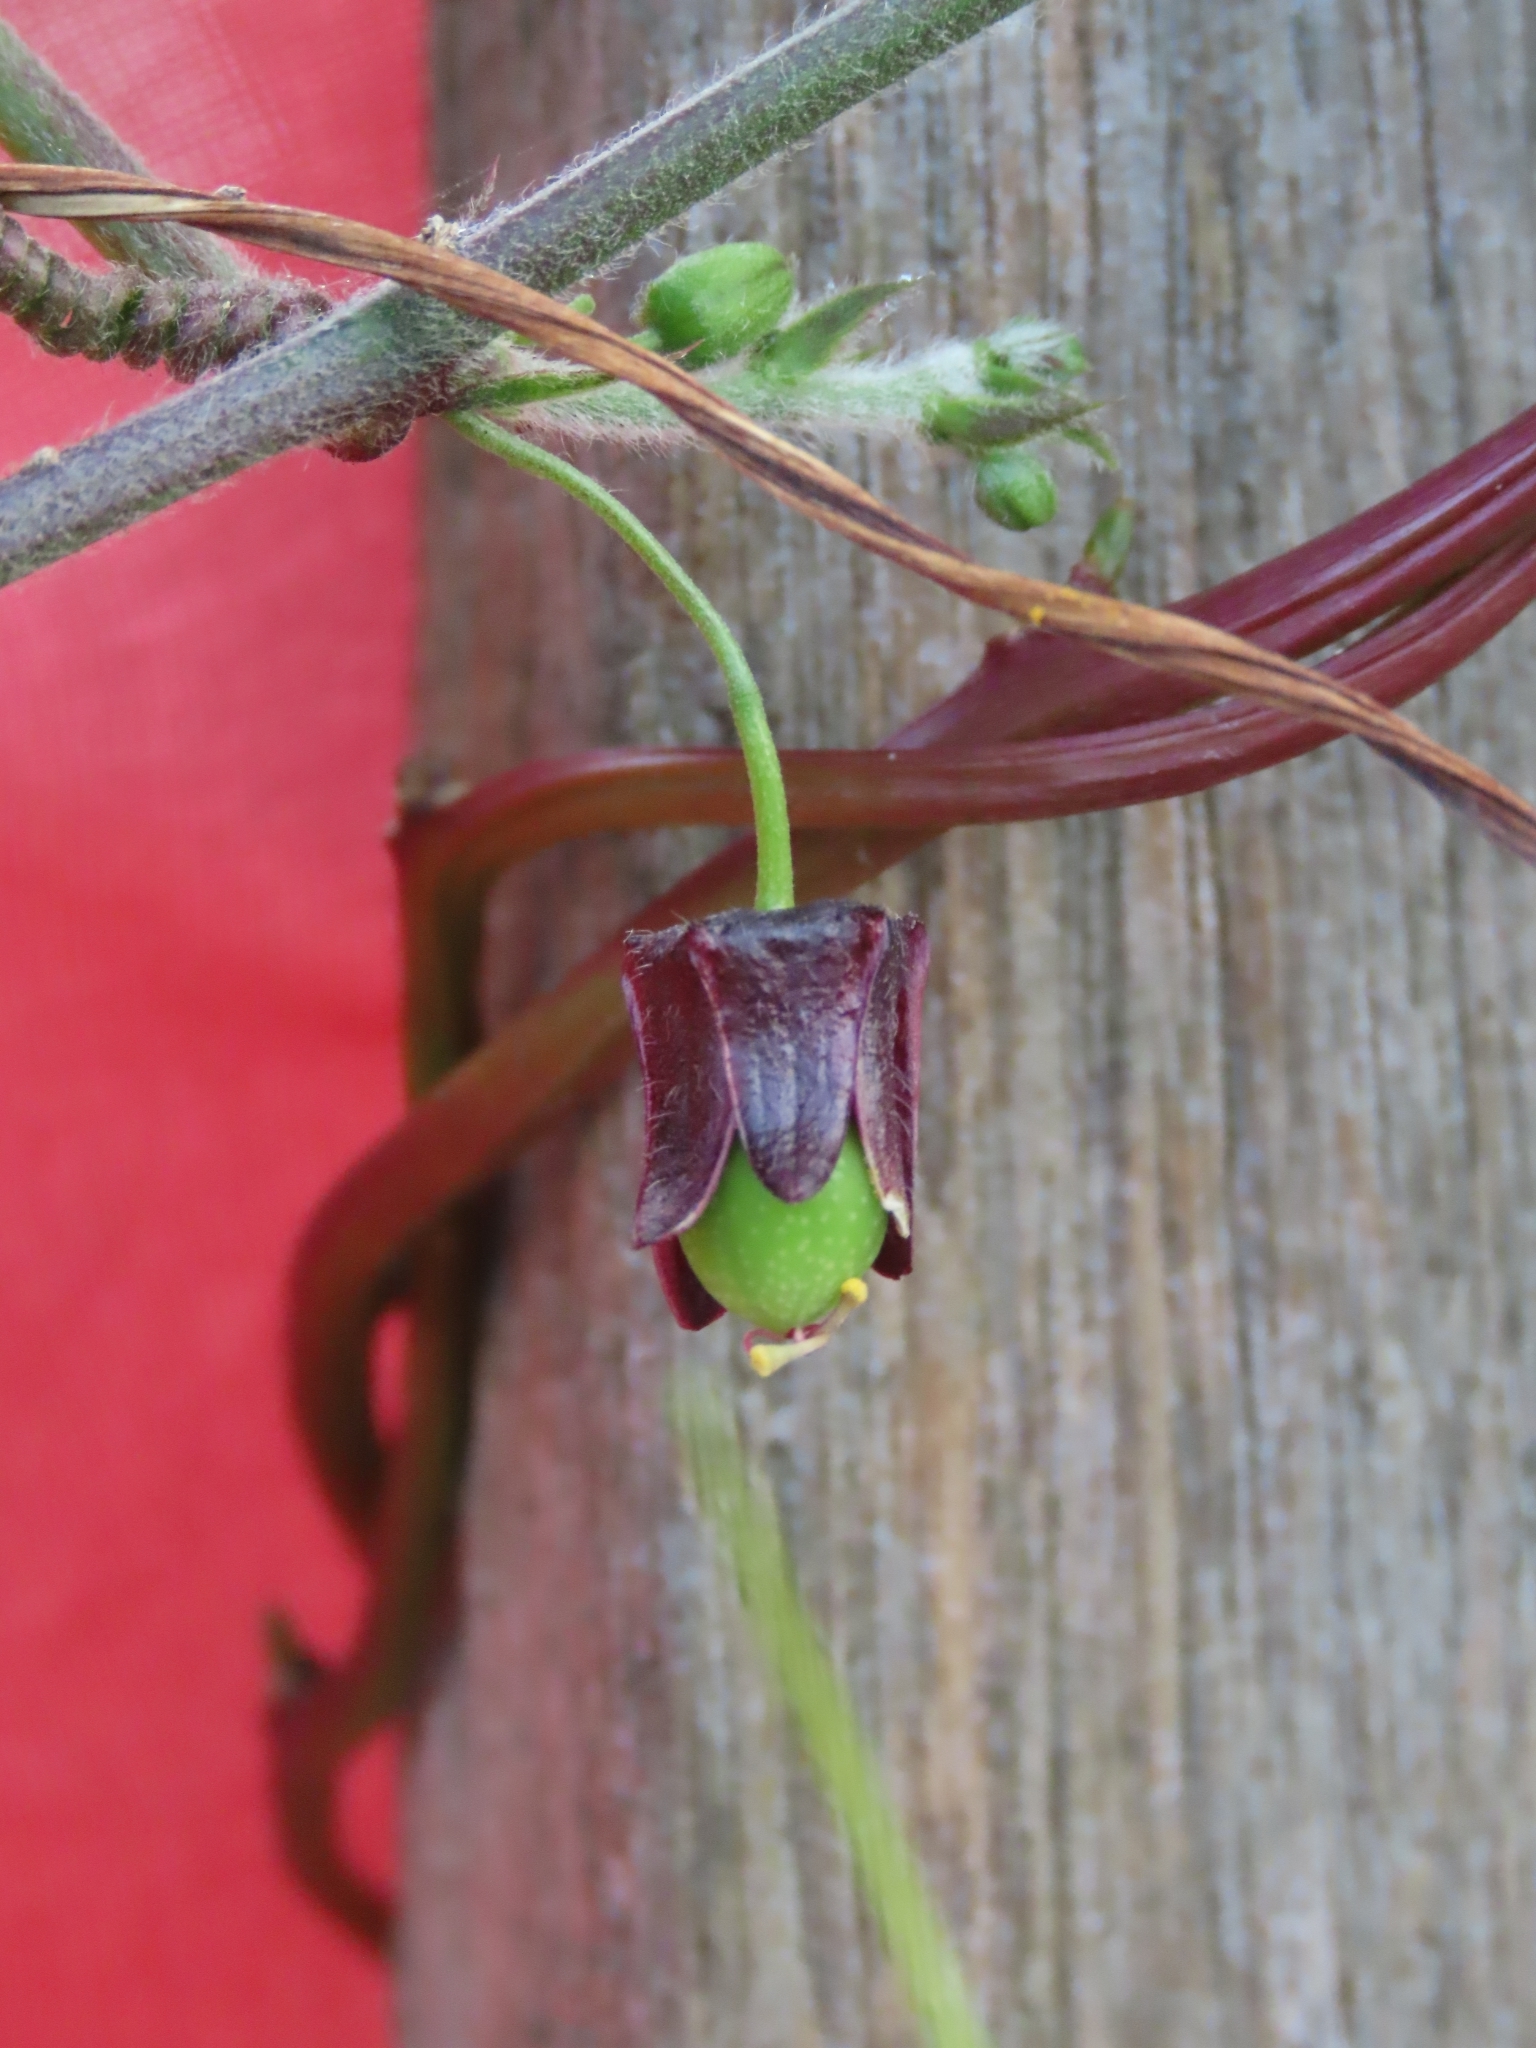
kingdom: Plantae
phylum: Tracheophyta
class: Magnoliopsida
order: Malpighiales
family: Passifloraceae
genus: Passiflora
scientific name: Passiflora suberosa
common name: Wild passionfruit
